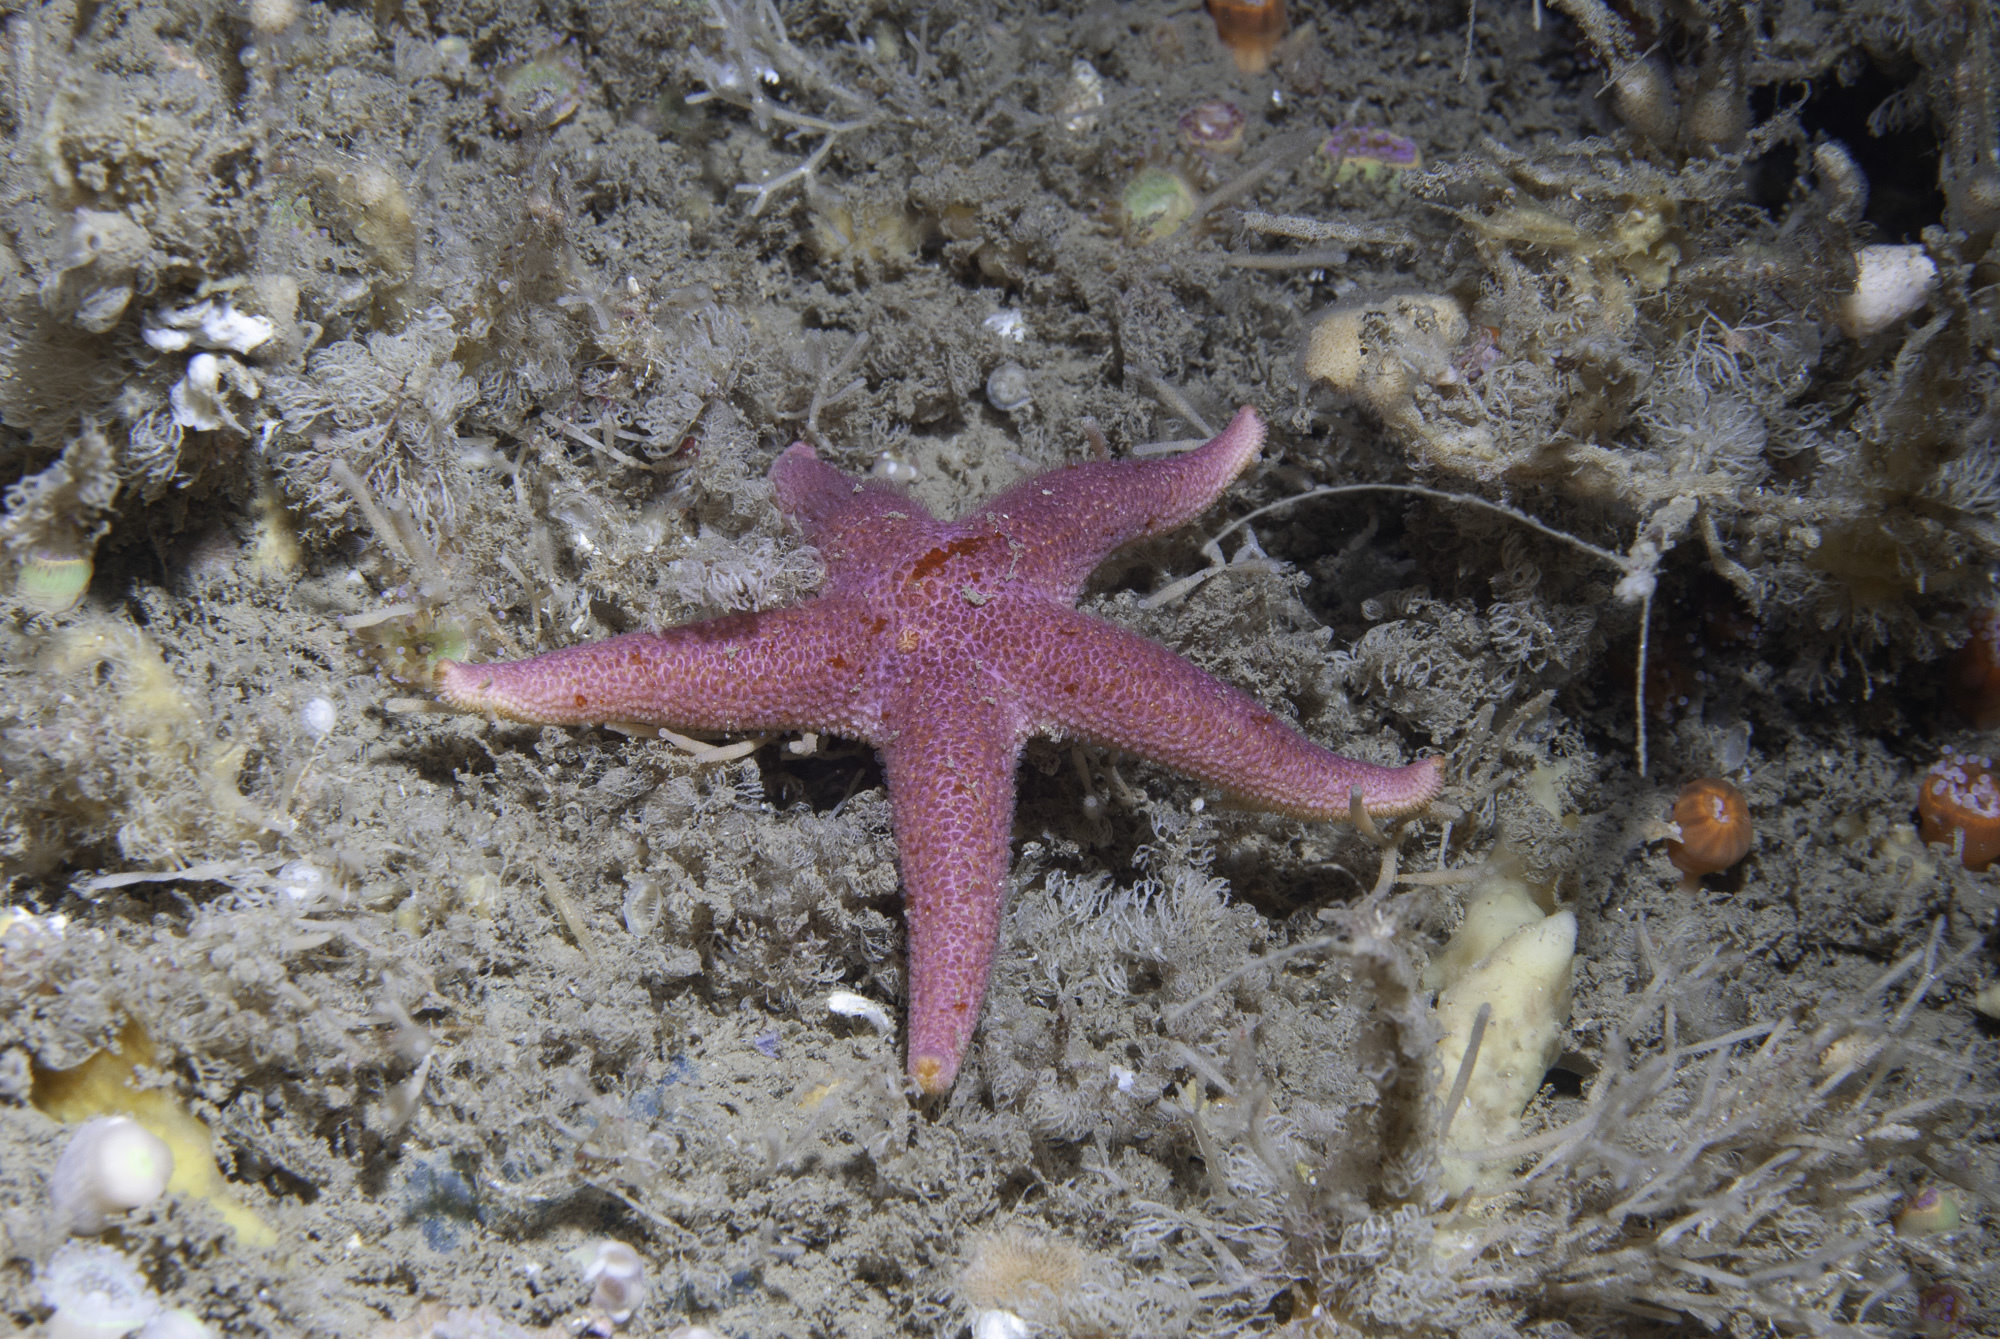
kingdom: Animalia
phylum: Echinodermata
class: Asteroidea
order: Spinulosida
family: Echinasteridae
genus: Henricia
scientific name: Henricia oculata
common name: Bloody henry starfish
